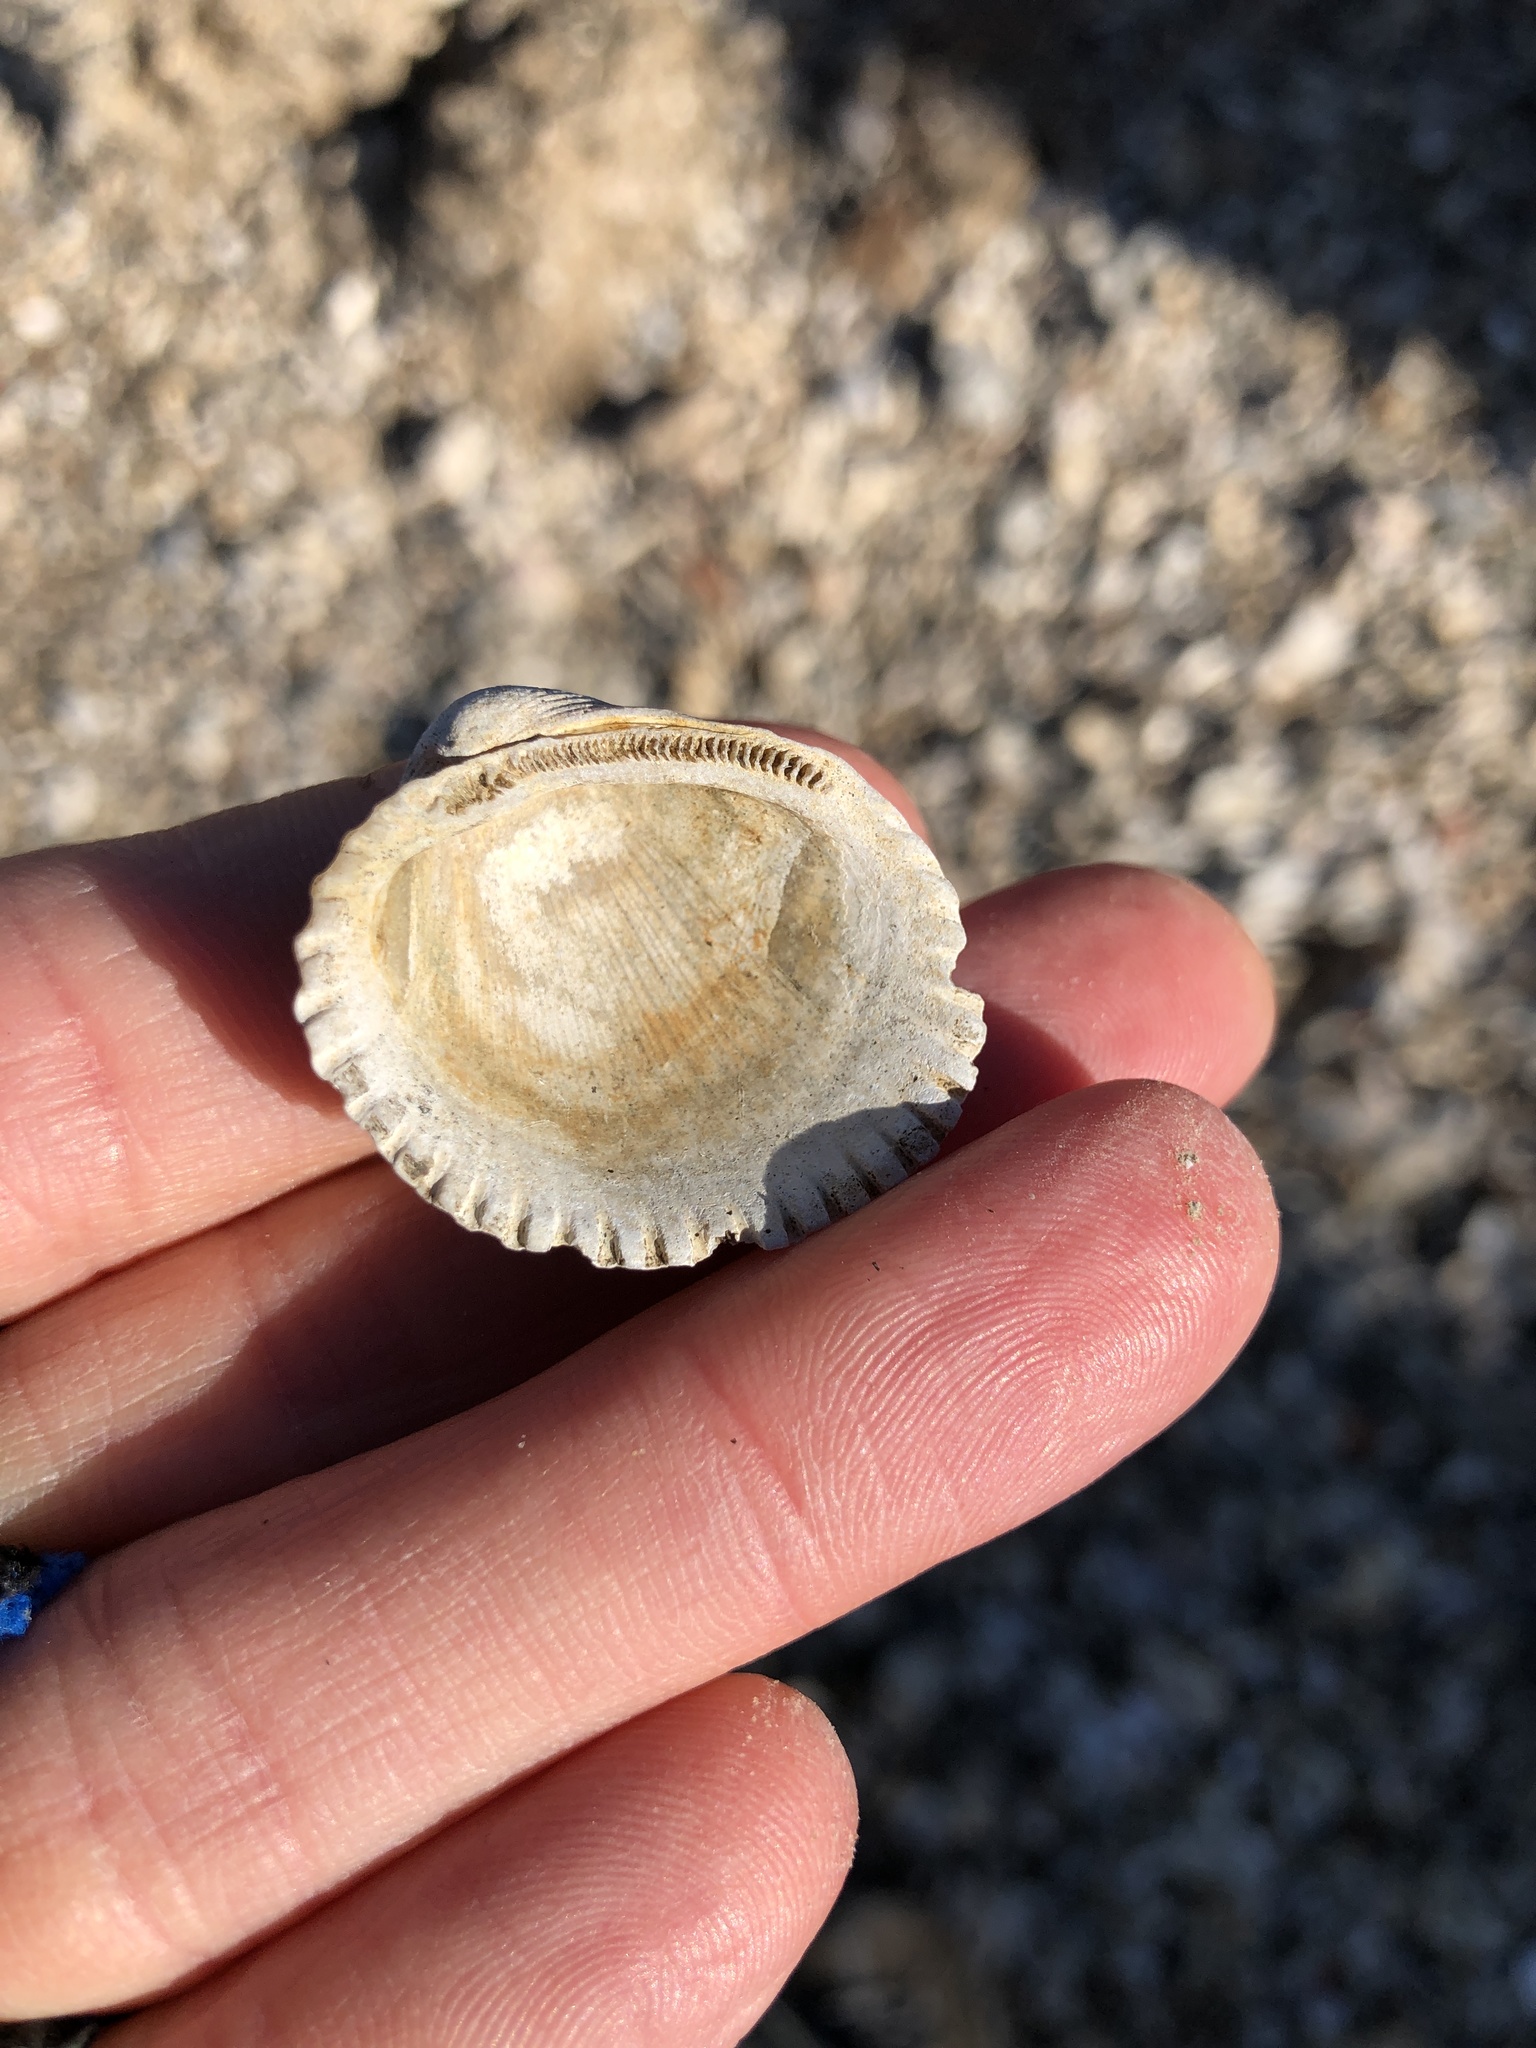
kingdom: Animalia
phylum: Mollusca
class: Bivalvia
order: Arcida
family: Arcidae
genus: Lunarca
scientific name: Lunarca ovalis
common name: Blood ark
